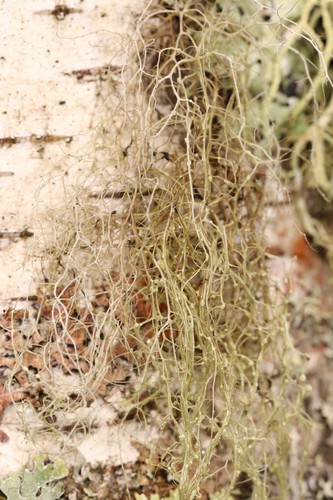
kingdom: Fungi
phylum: Ascomycota
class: Lecanoromycetes
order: Lecanorales
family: Parmeliaceae
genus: Bryoria
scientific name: Bryoria
